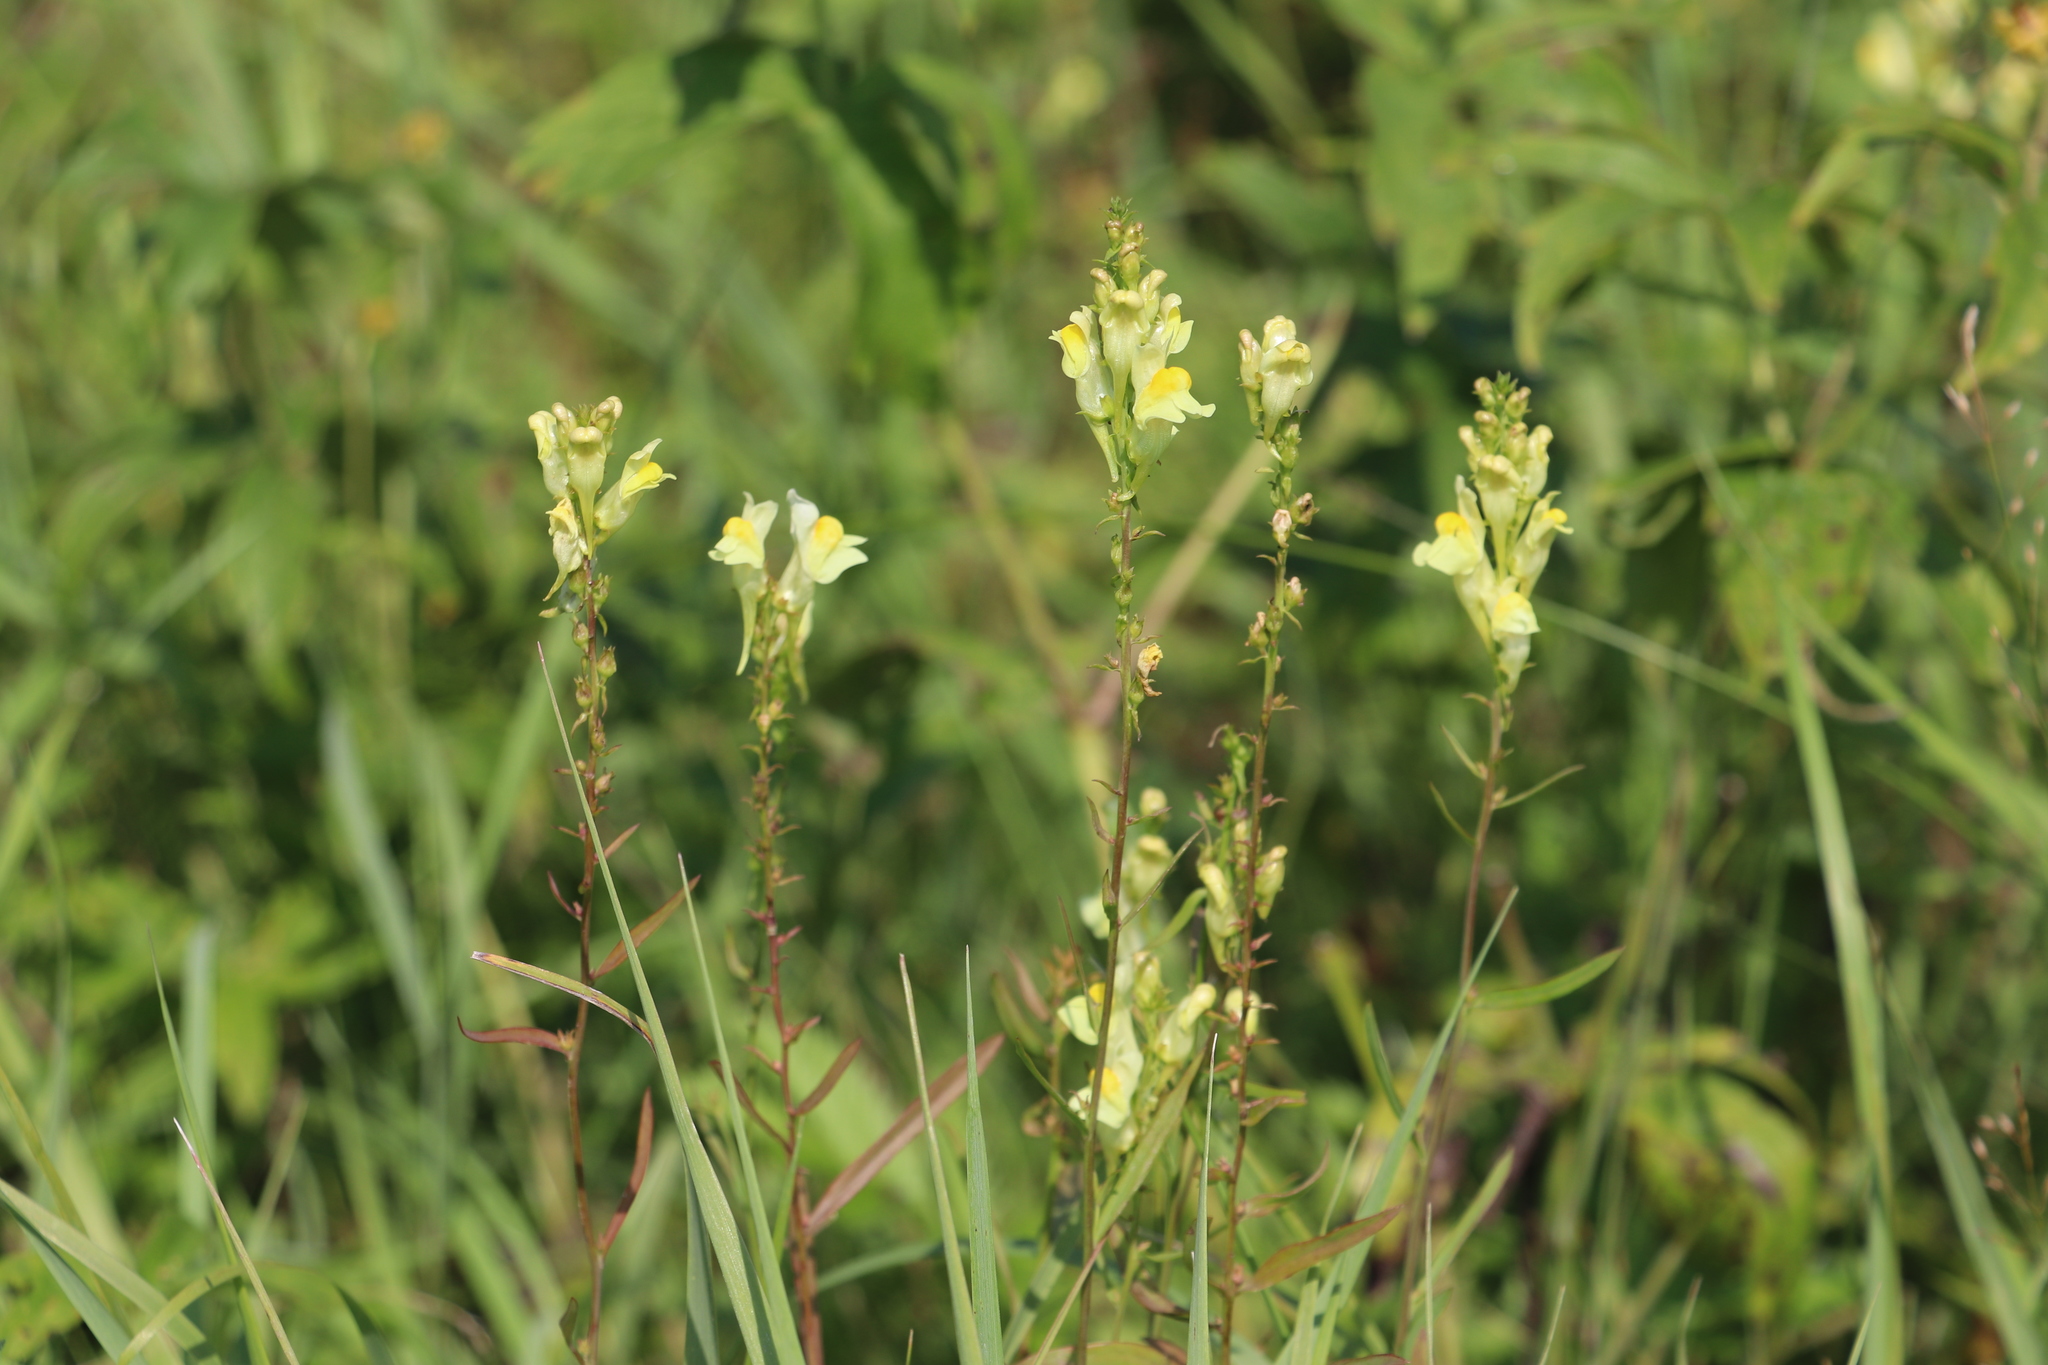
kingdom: Plantae
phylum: Tracheophyta
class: Magnoliopsida
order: Lamiales
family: Plantaginaceae
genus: Linaria
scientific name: Linaria vulgaris
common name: Butter and eggs
